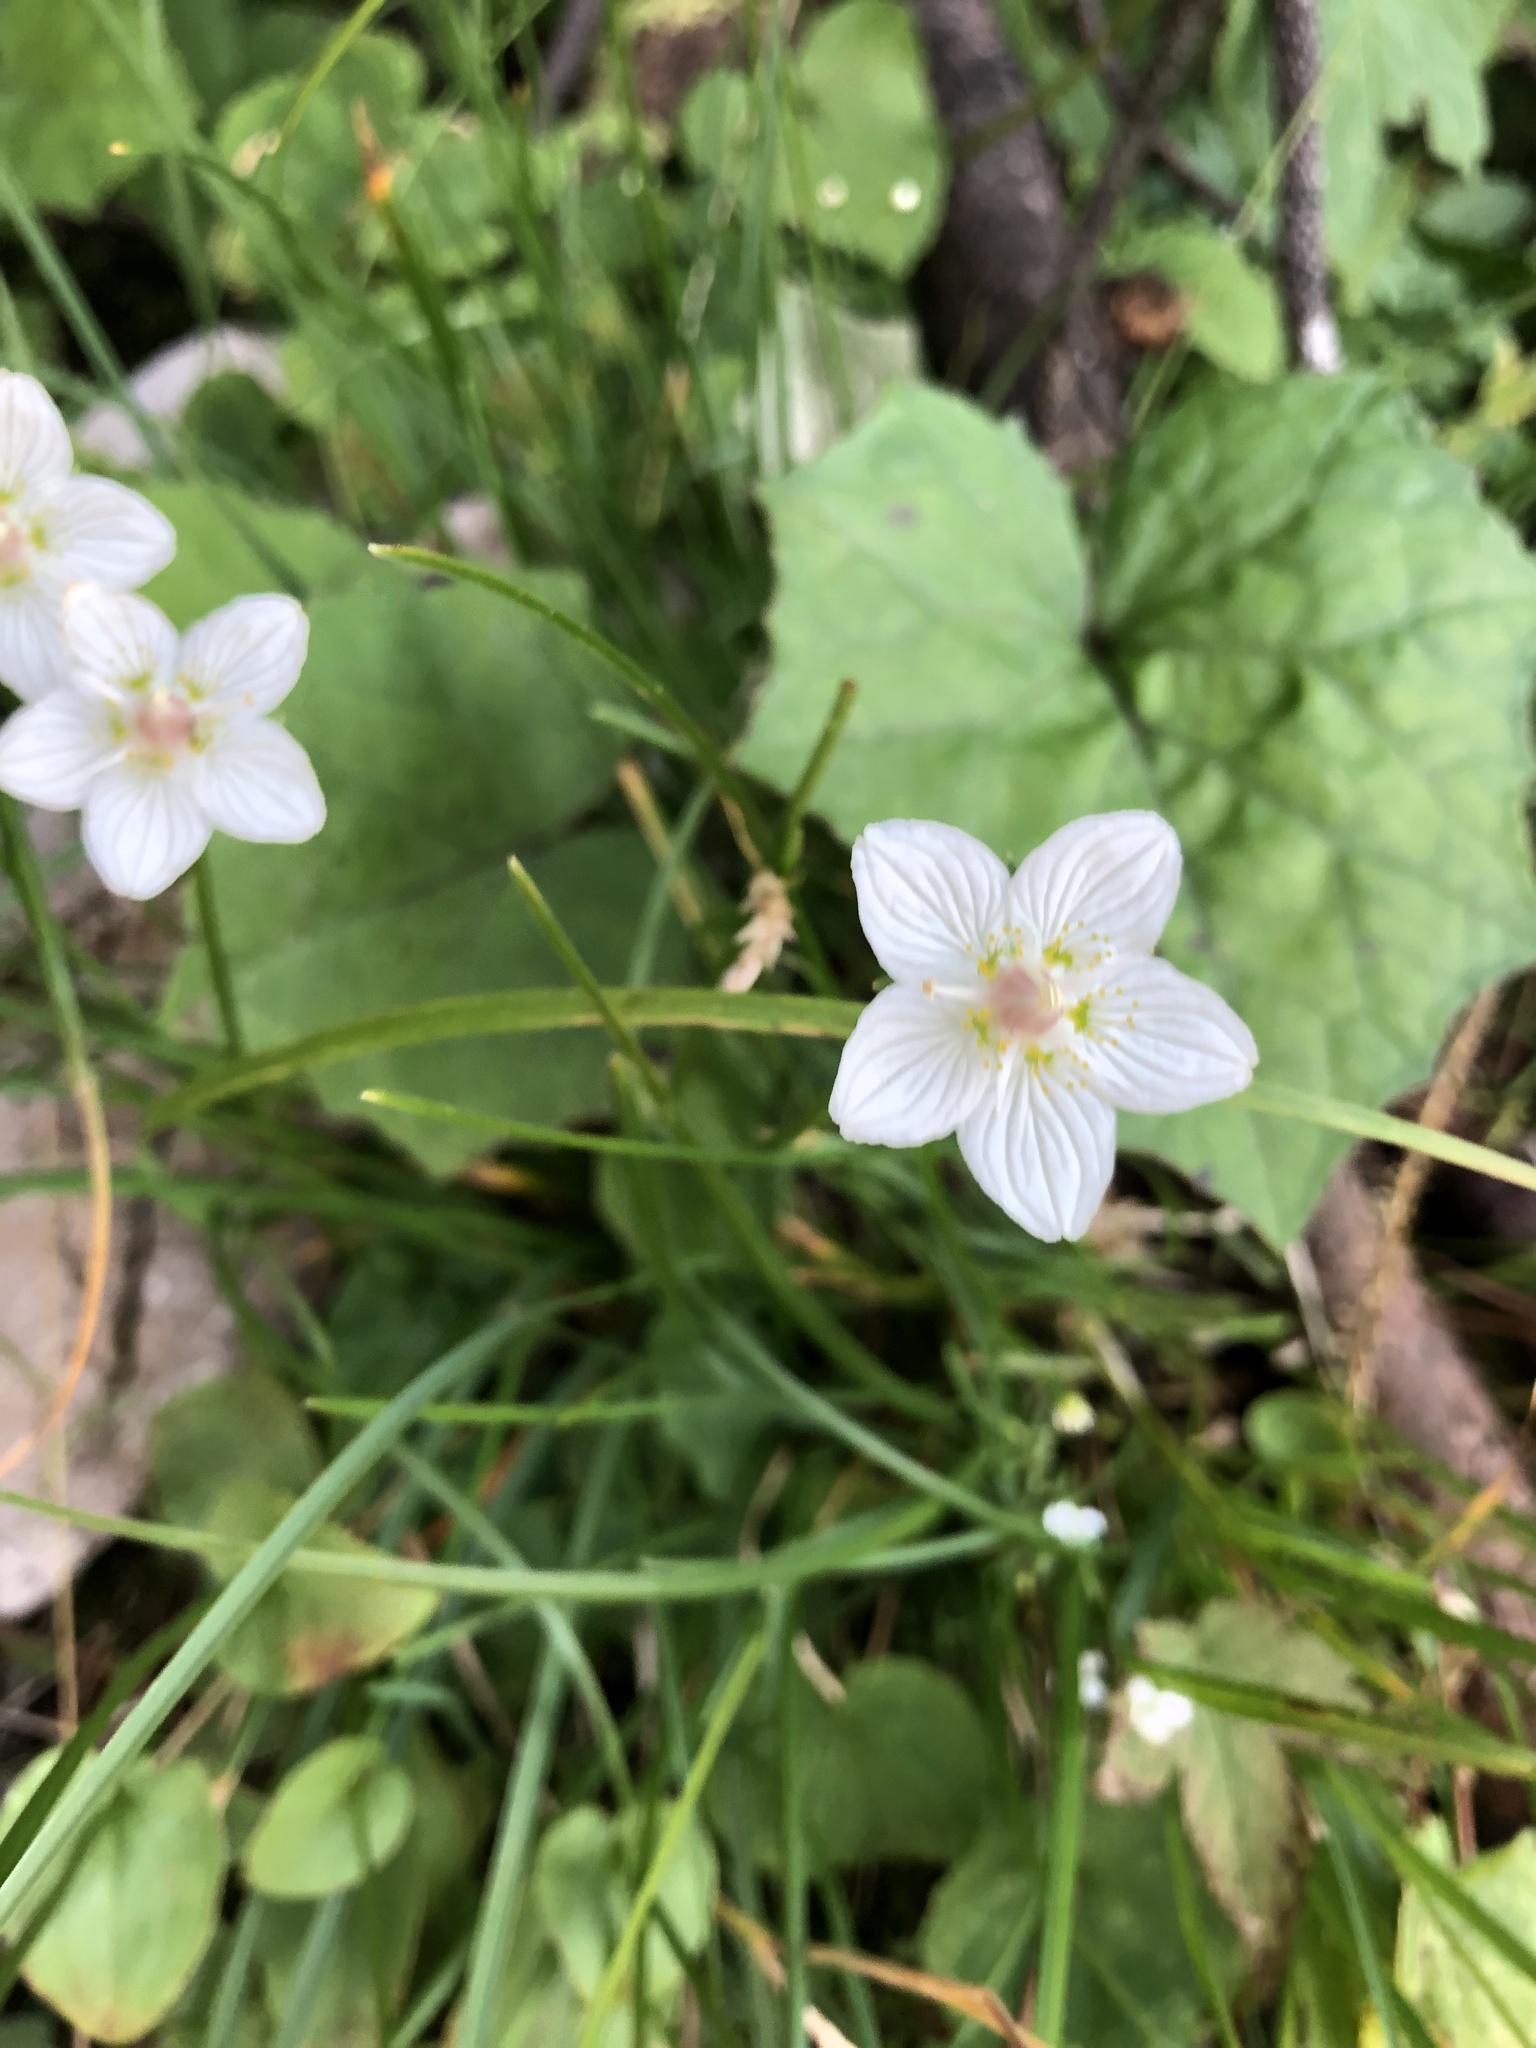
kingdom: Plantae
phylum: Tracheophyta
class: Magnoliopsida
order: Celastrales
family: Parnassiaceae
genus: Parnassia
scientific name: Parnassia palustris
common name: Grass-of-parnassus
